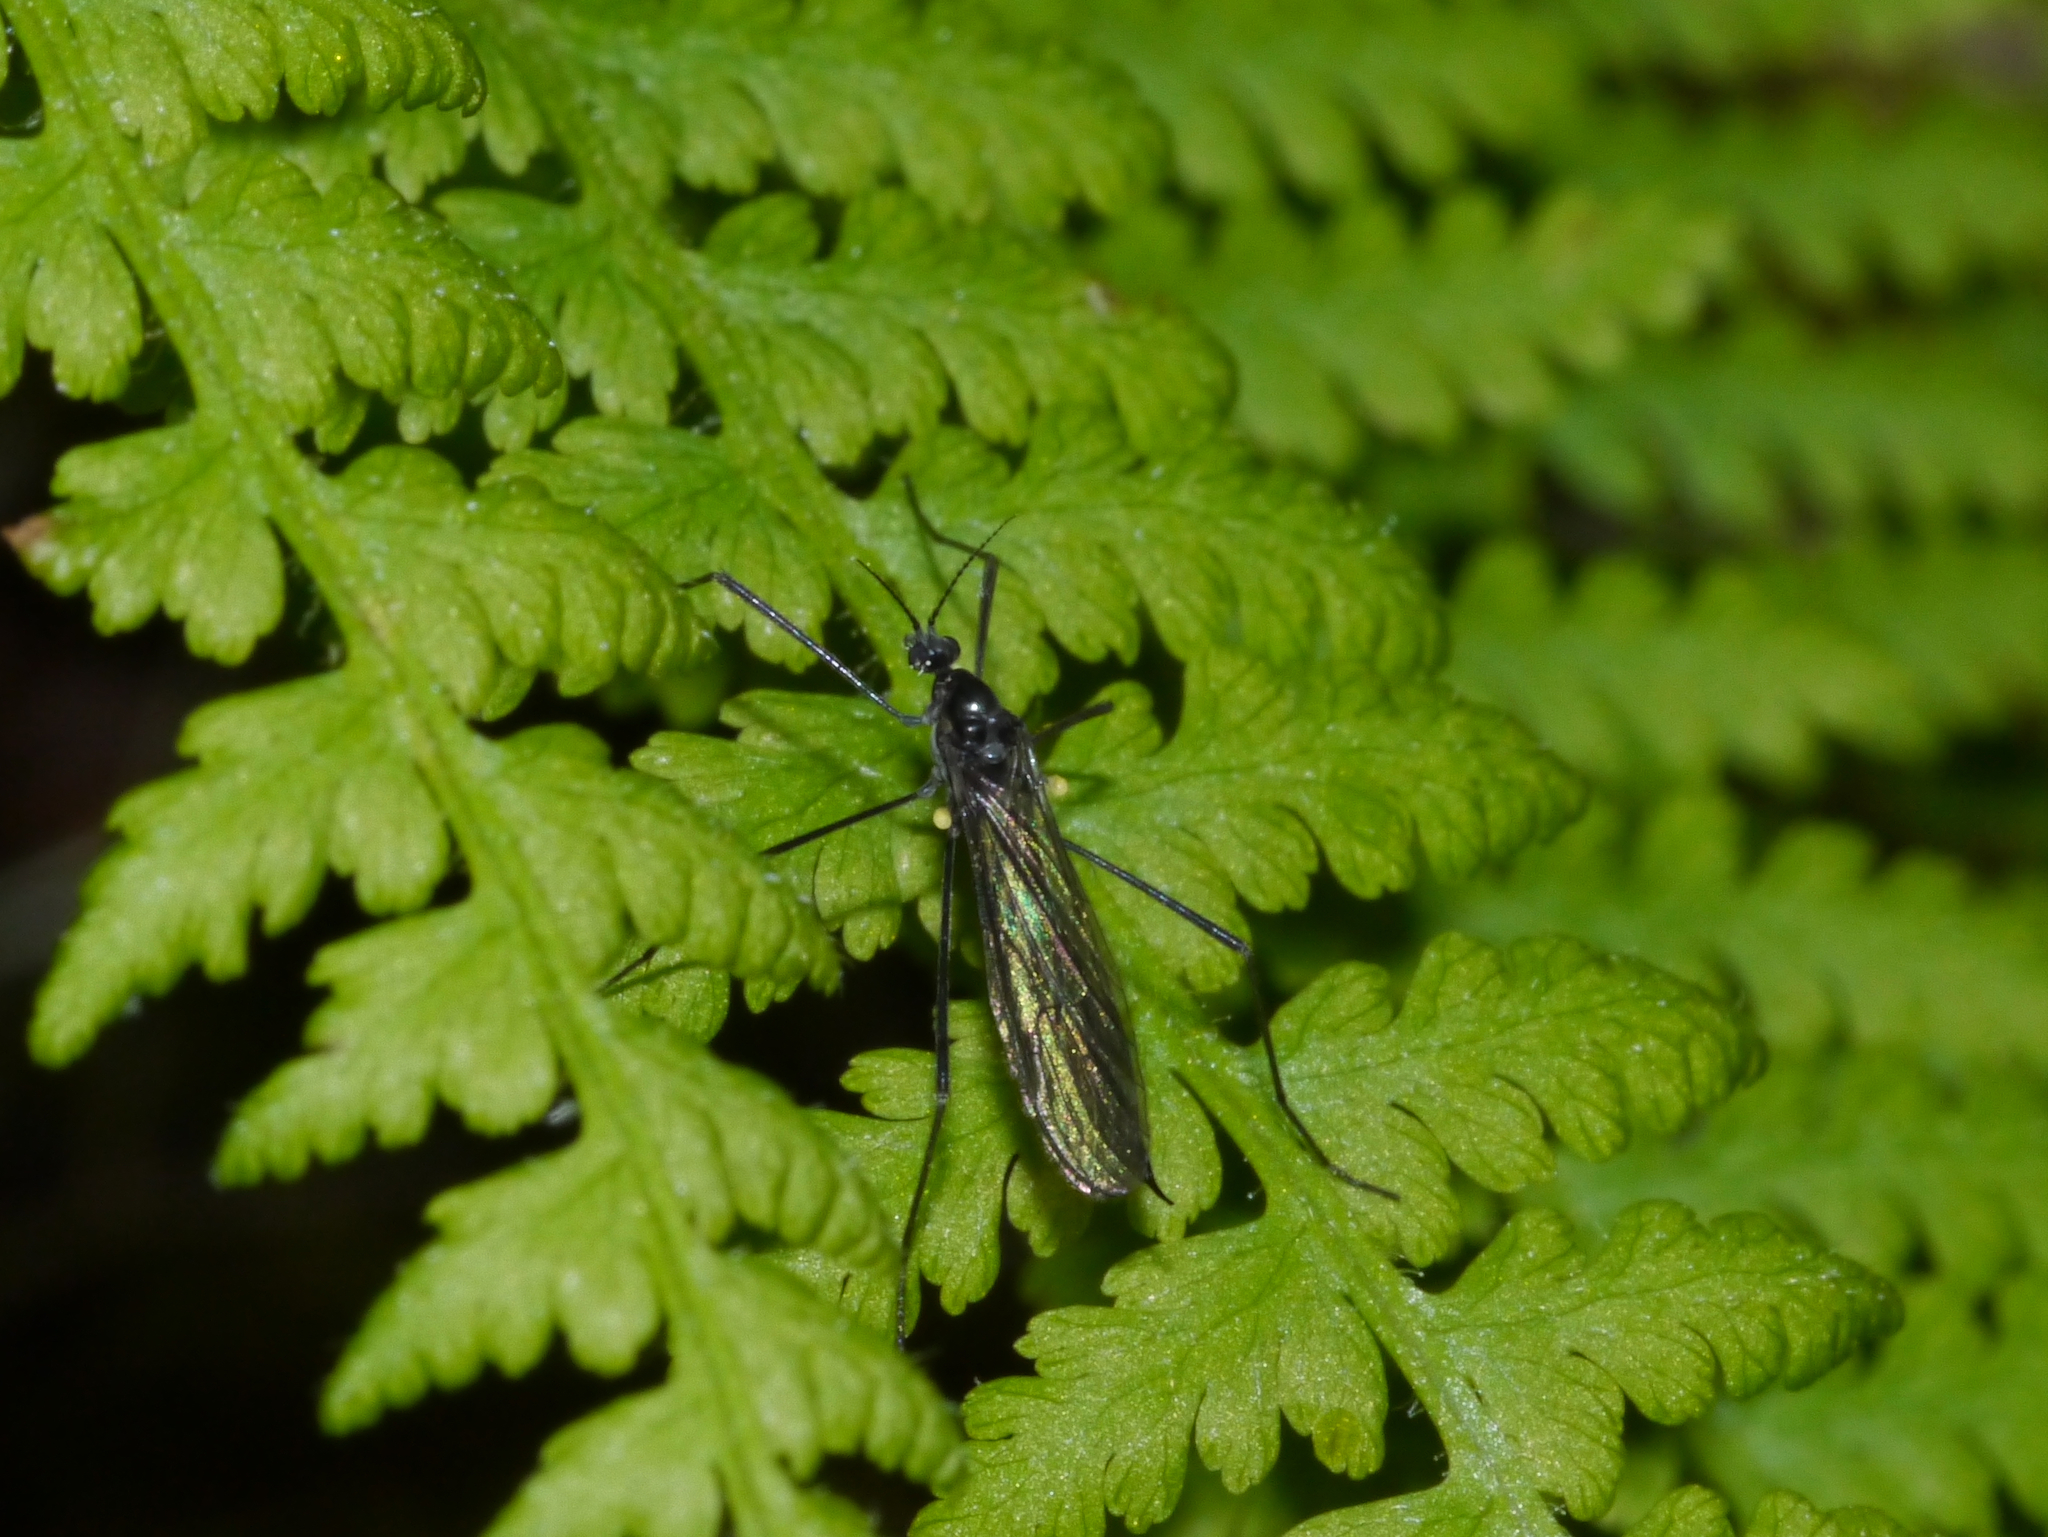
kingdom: Animalia
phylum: Arthropoda
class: Insecta
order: Diptera
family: Limoniidae
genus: Gnophomyia
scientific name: Gnophomyia tristissima
